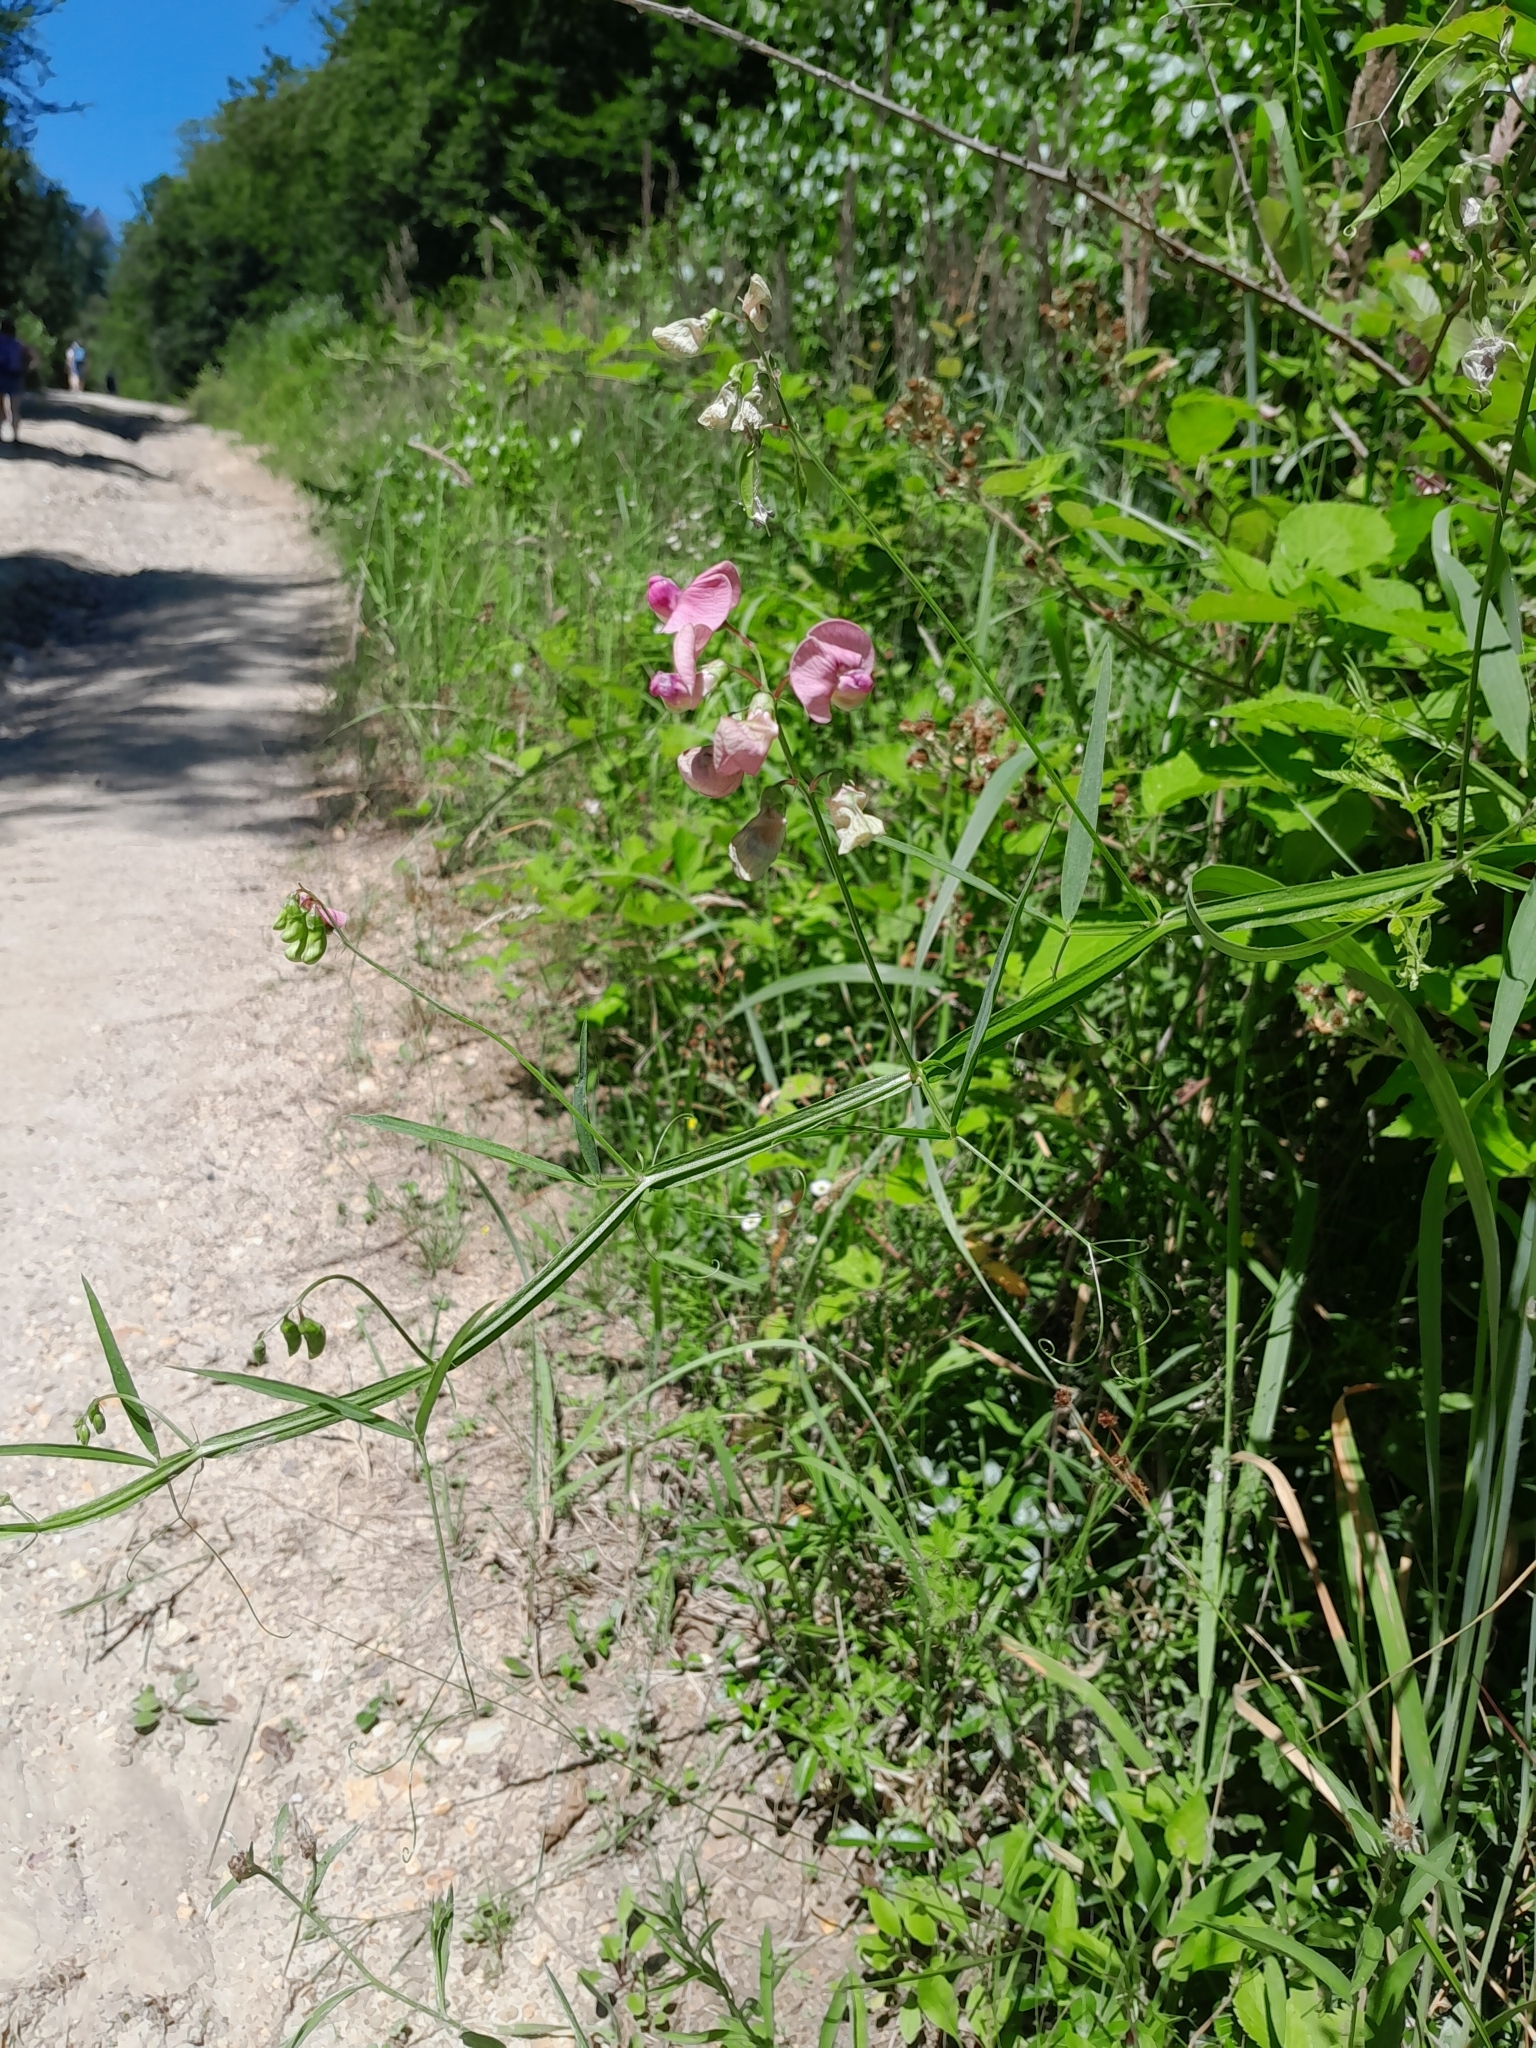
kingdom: Plantae
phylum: Tracheophyta
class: Magnoliopsida
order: Fabales
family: Fabaceae
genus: Lathyrus
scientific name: Lathyrus sylvestris
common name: Flat pea
